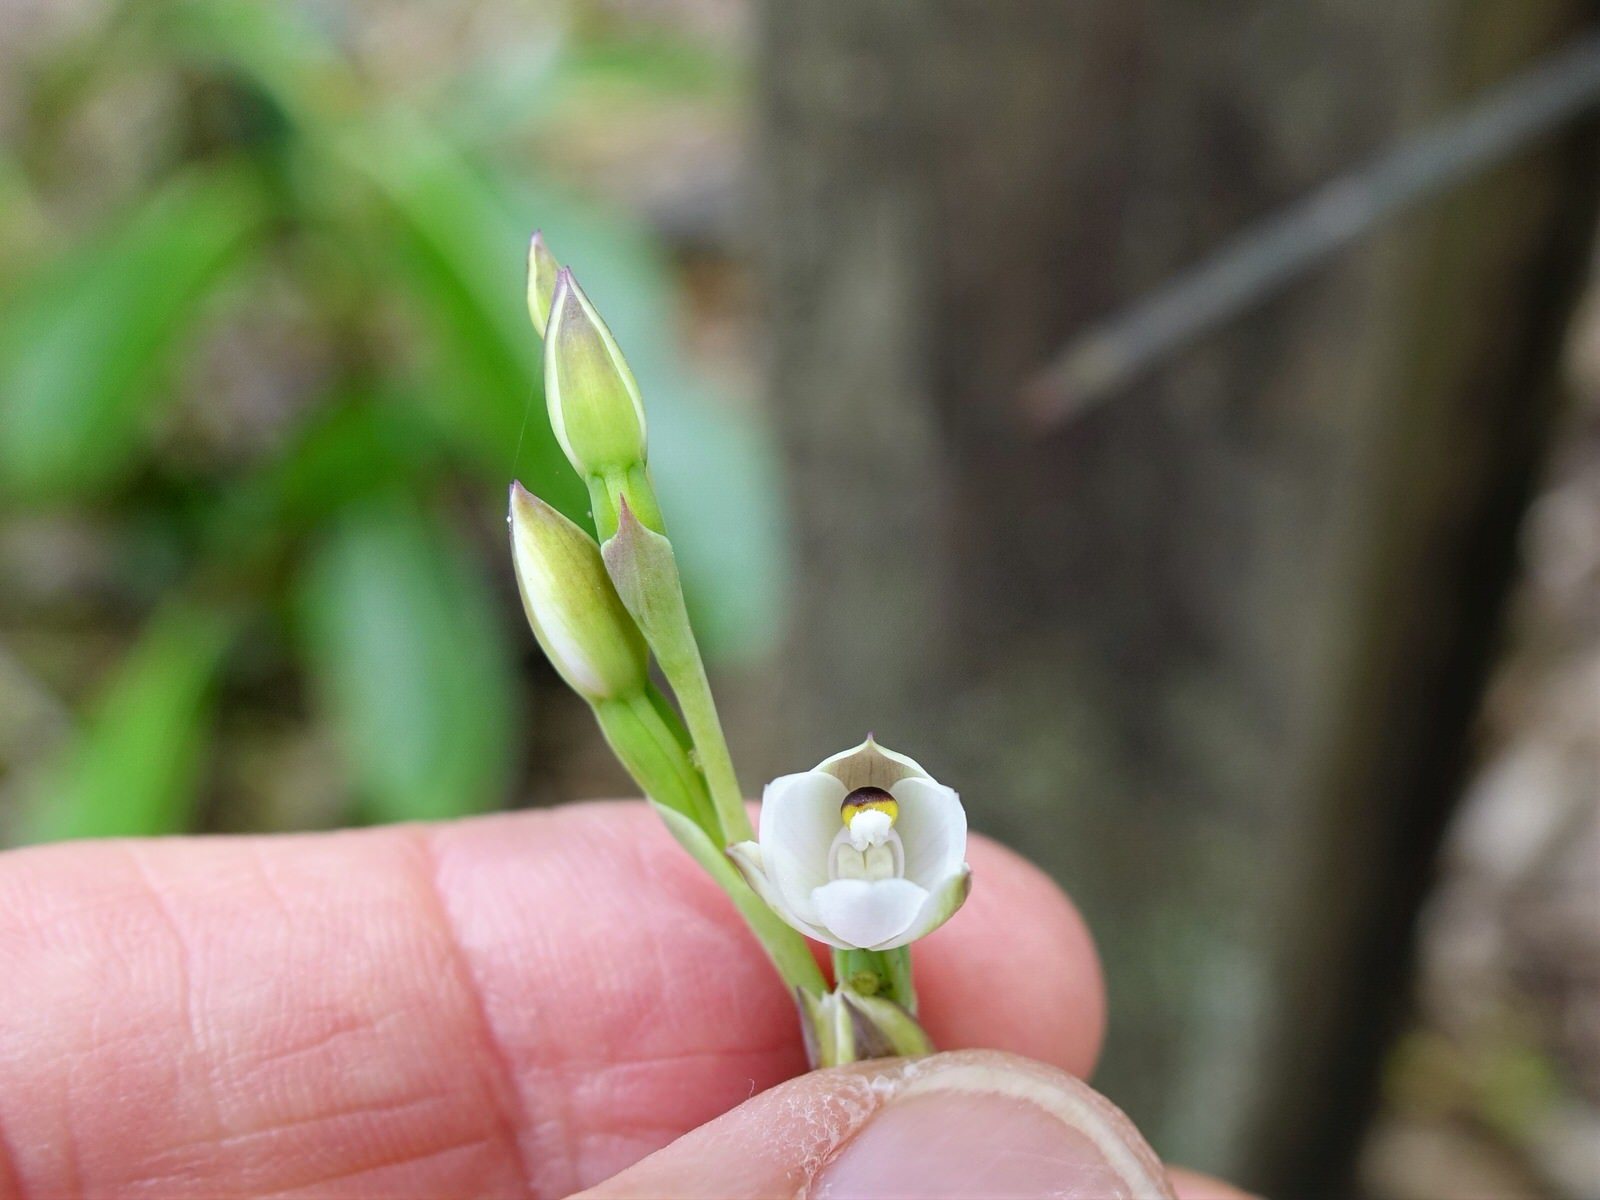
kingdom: Plantae
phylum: Tracheophyta
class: Liliopsida
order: Asparagales
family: Orchidaceae
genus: Thelymitra
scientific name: Thelymitra longifolia
